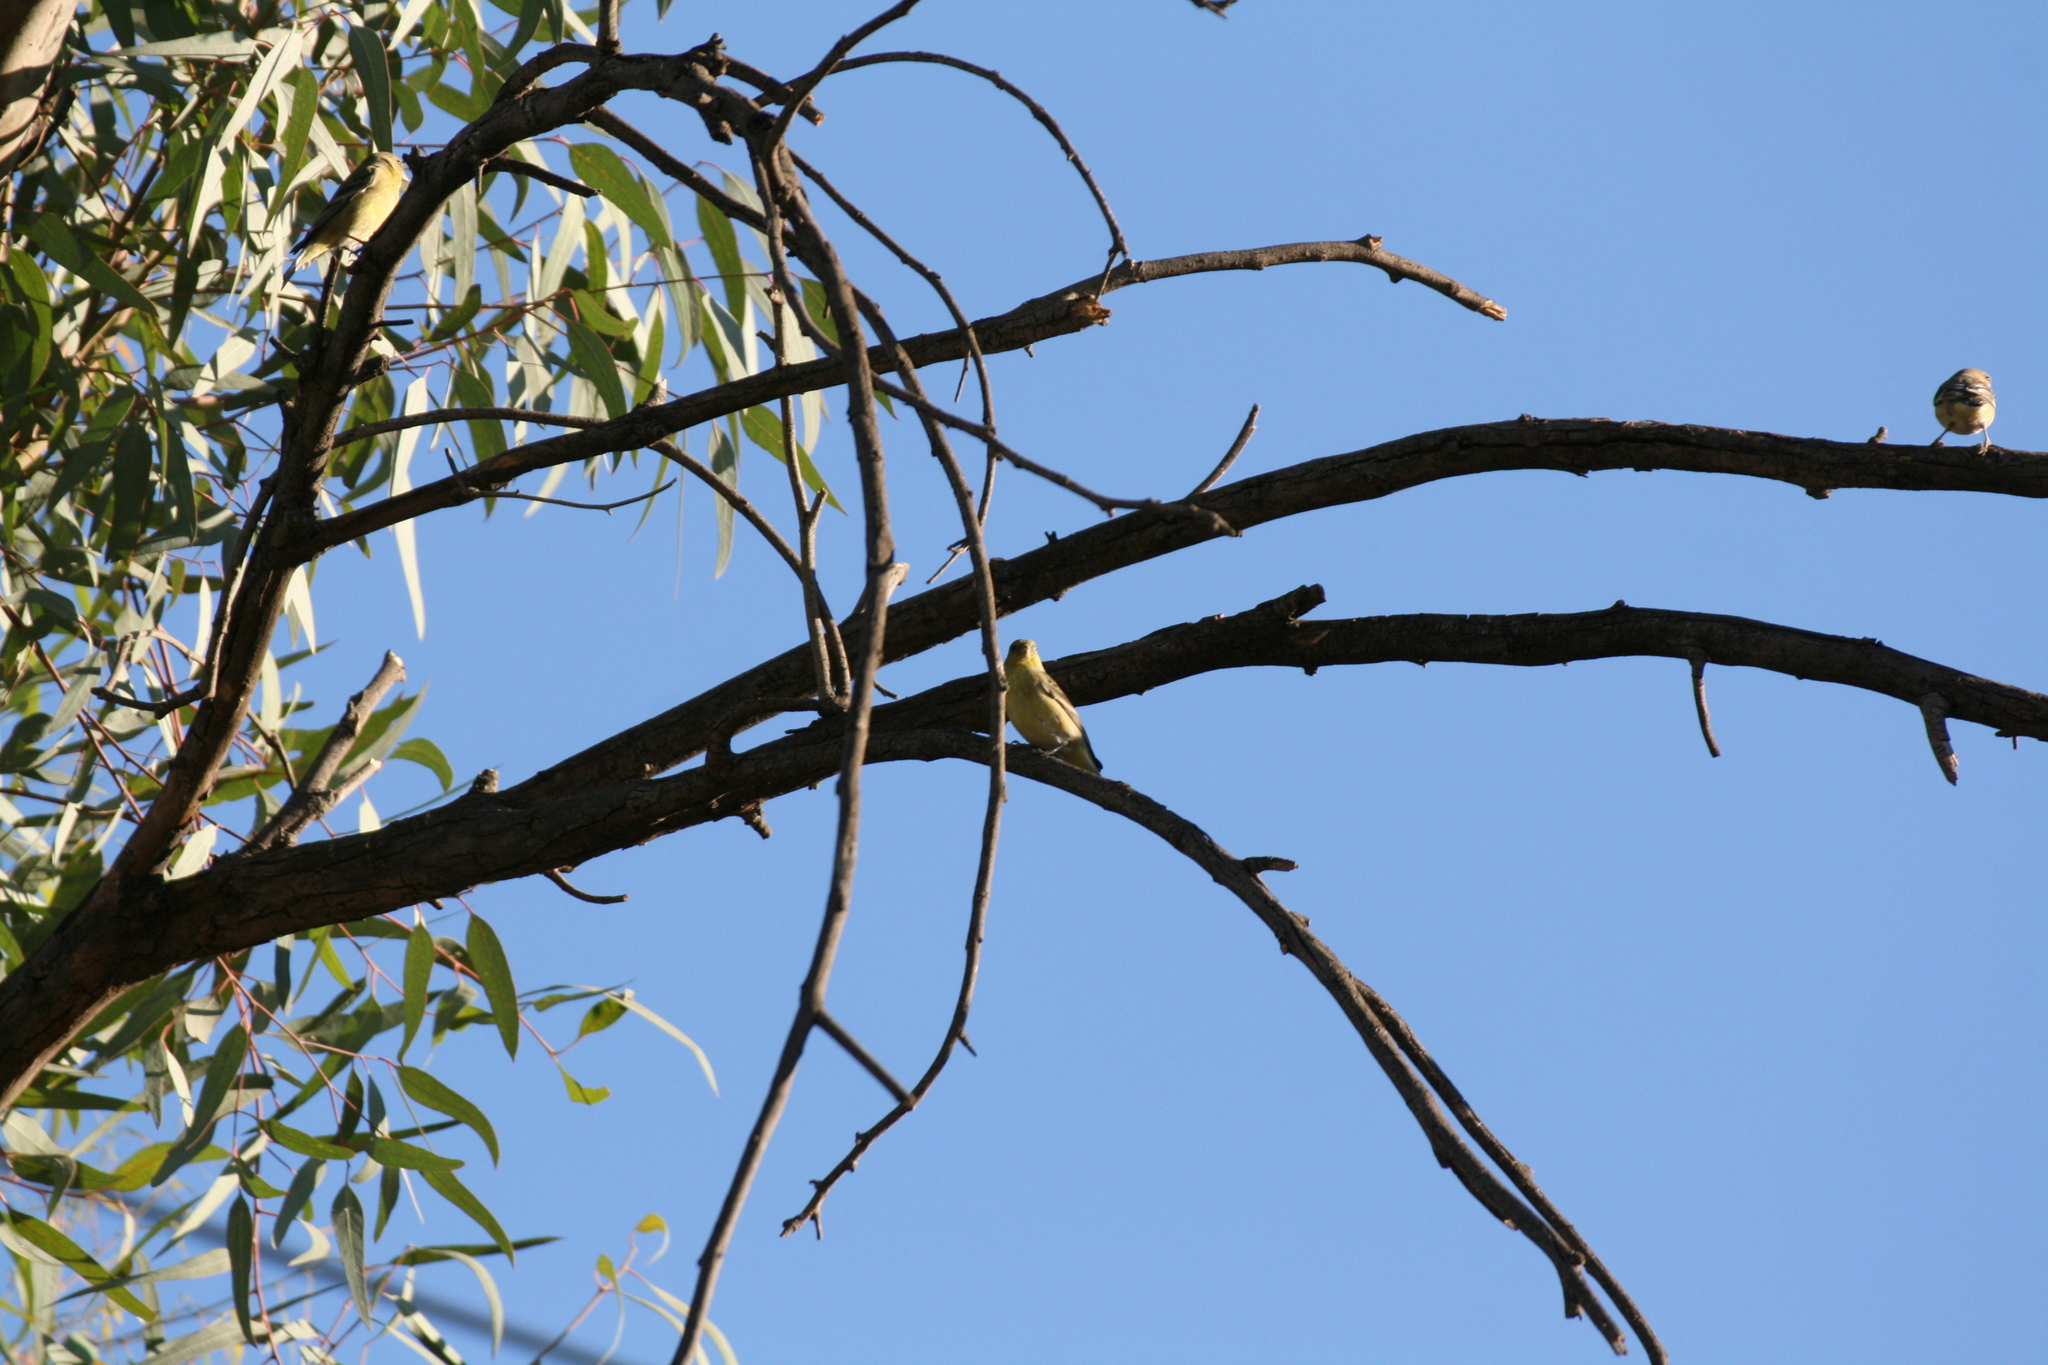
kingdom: Animalia
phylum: Chordata
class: Aves
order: Passeriformes
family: Fringillidae
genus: Spinus
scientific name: Spinus psaltria
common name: Lesser goldfinch
